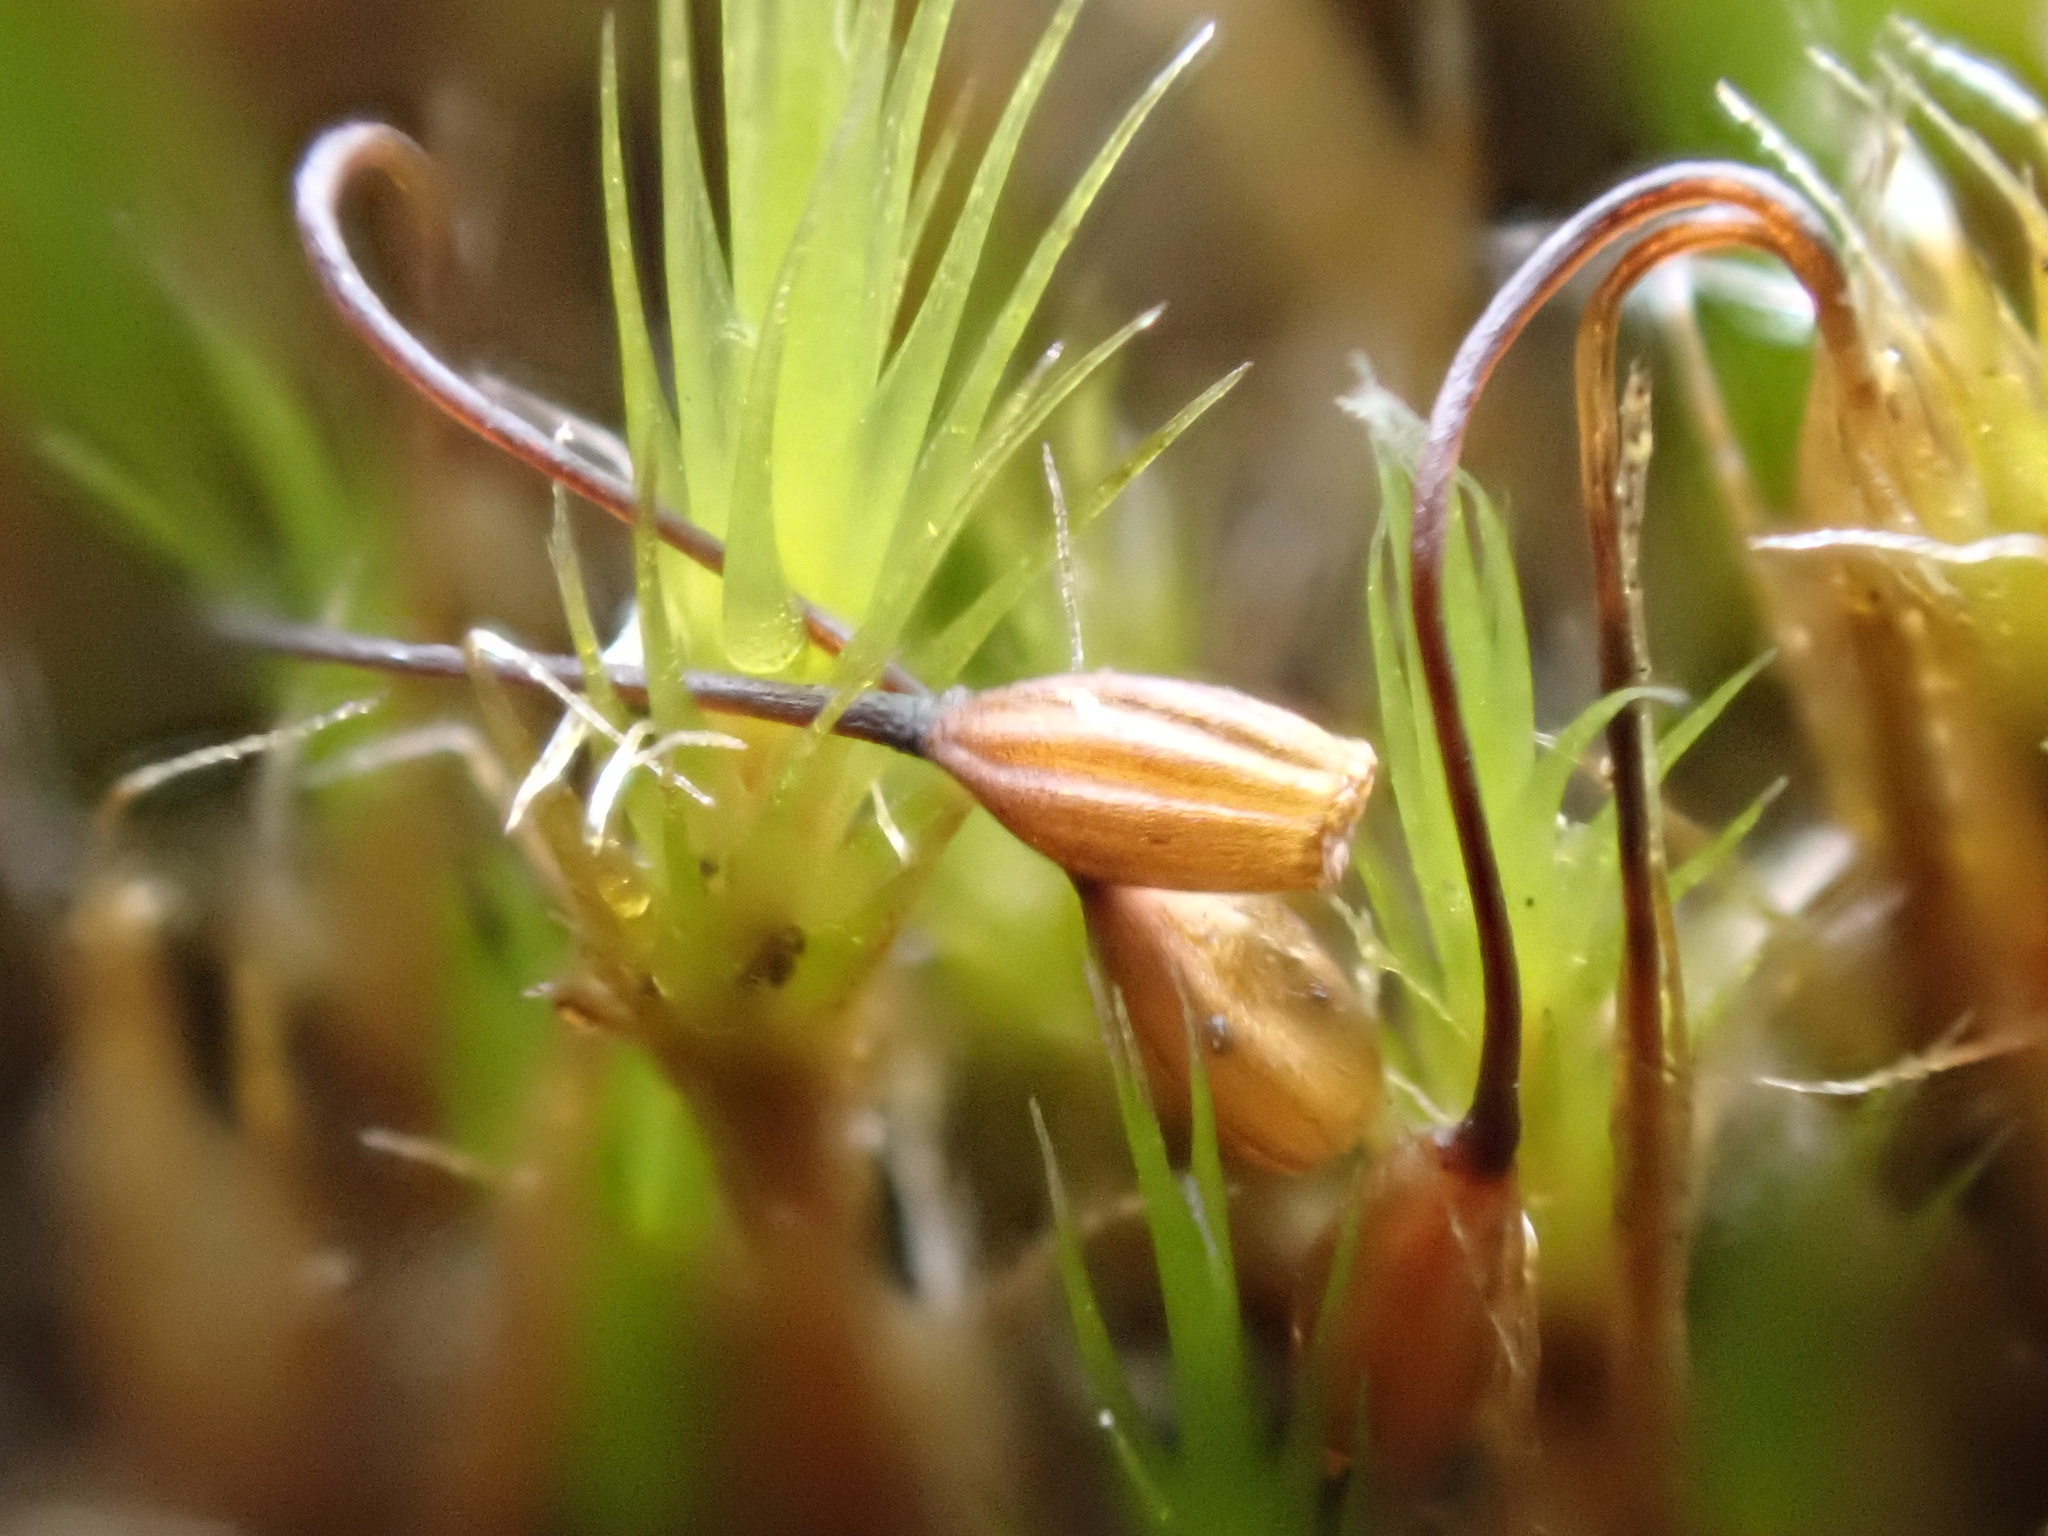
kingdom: Plantae
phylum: Bryophyta
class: Bryopsida
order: Dicranales
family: Leucobryaceae
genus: Campylopus
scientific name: Campylopus introflexus
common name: Heath star moss
